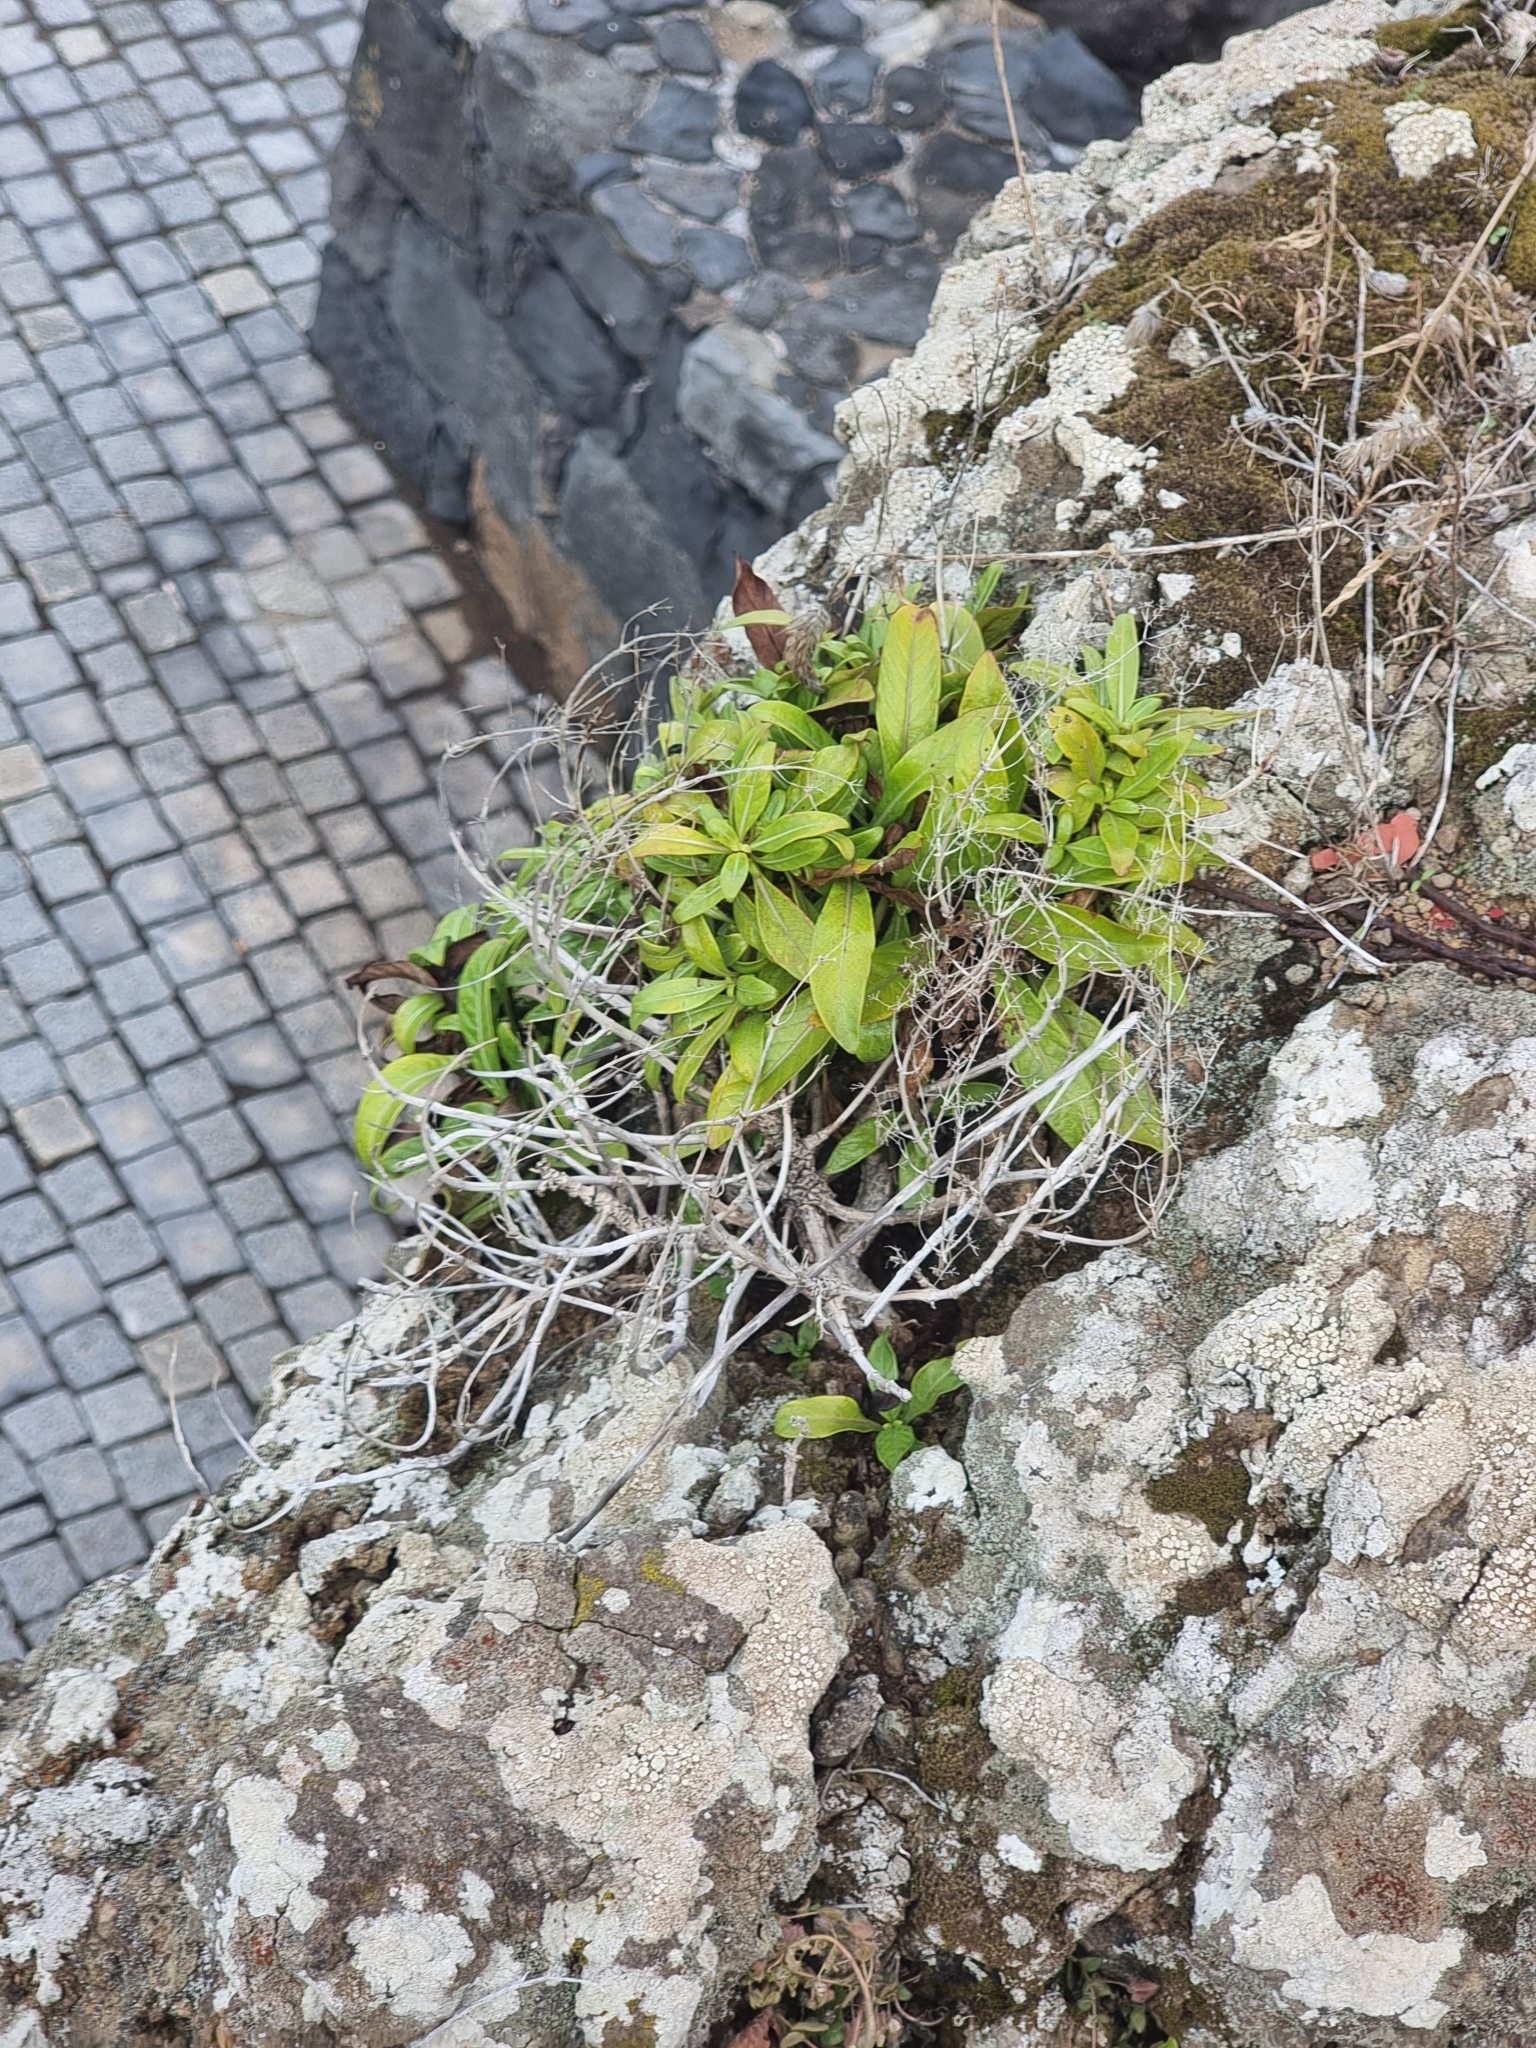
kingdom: Plantae
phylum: Tracheophyta
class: Magnoliopsida
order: Gentianales
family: Rubiaceae
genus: Phyllis
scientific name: Phyllis nobla
